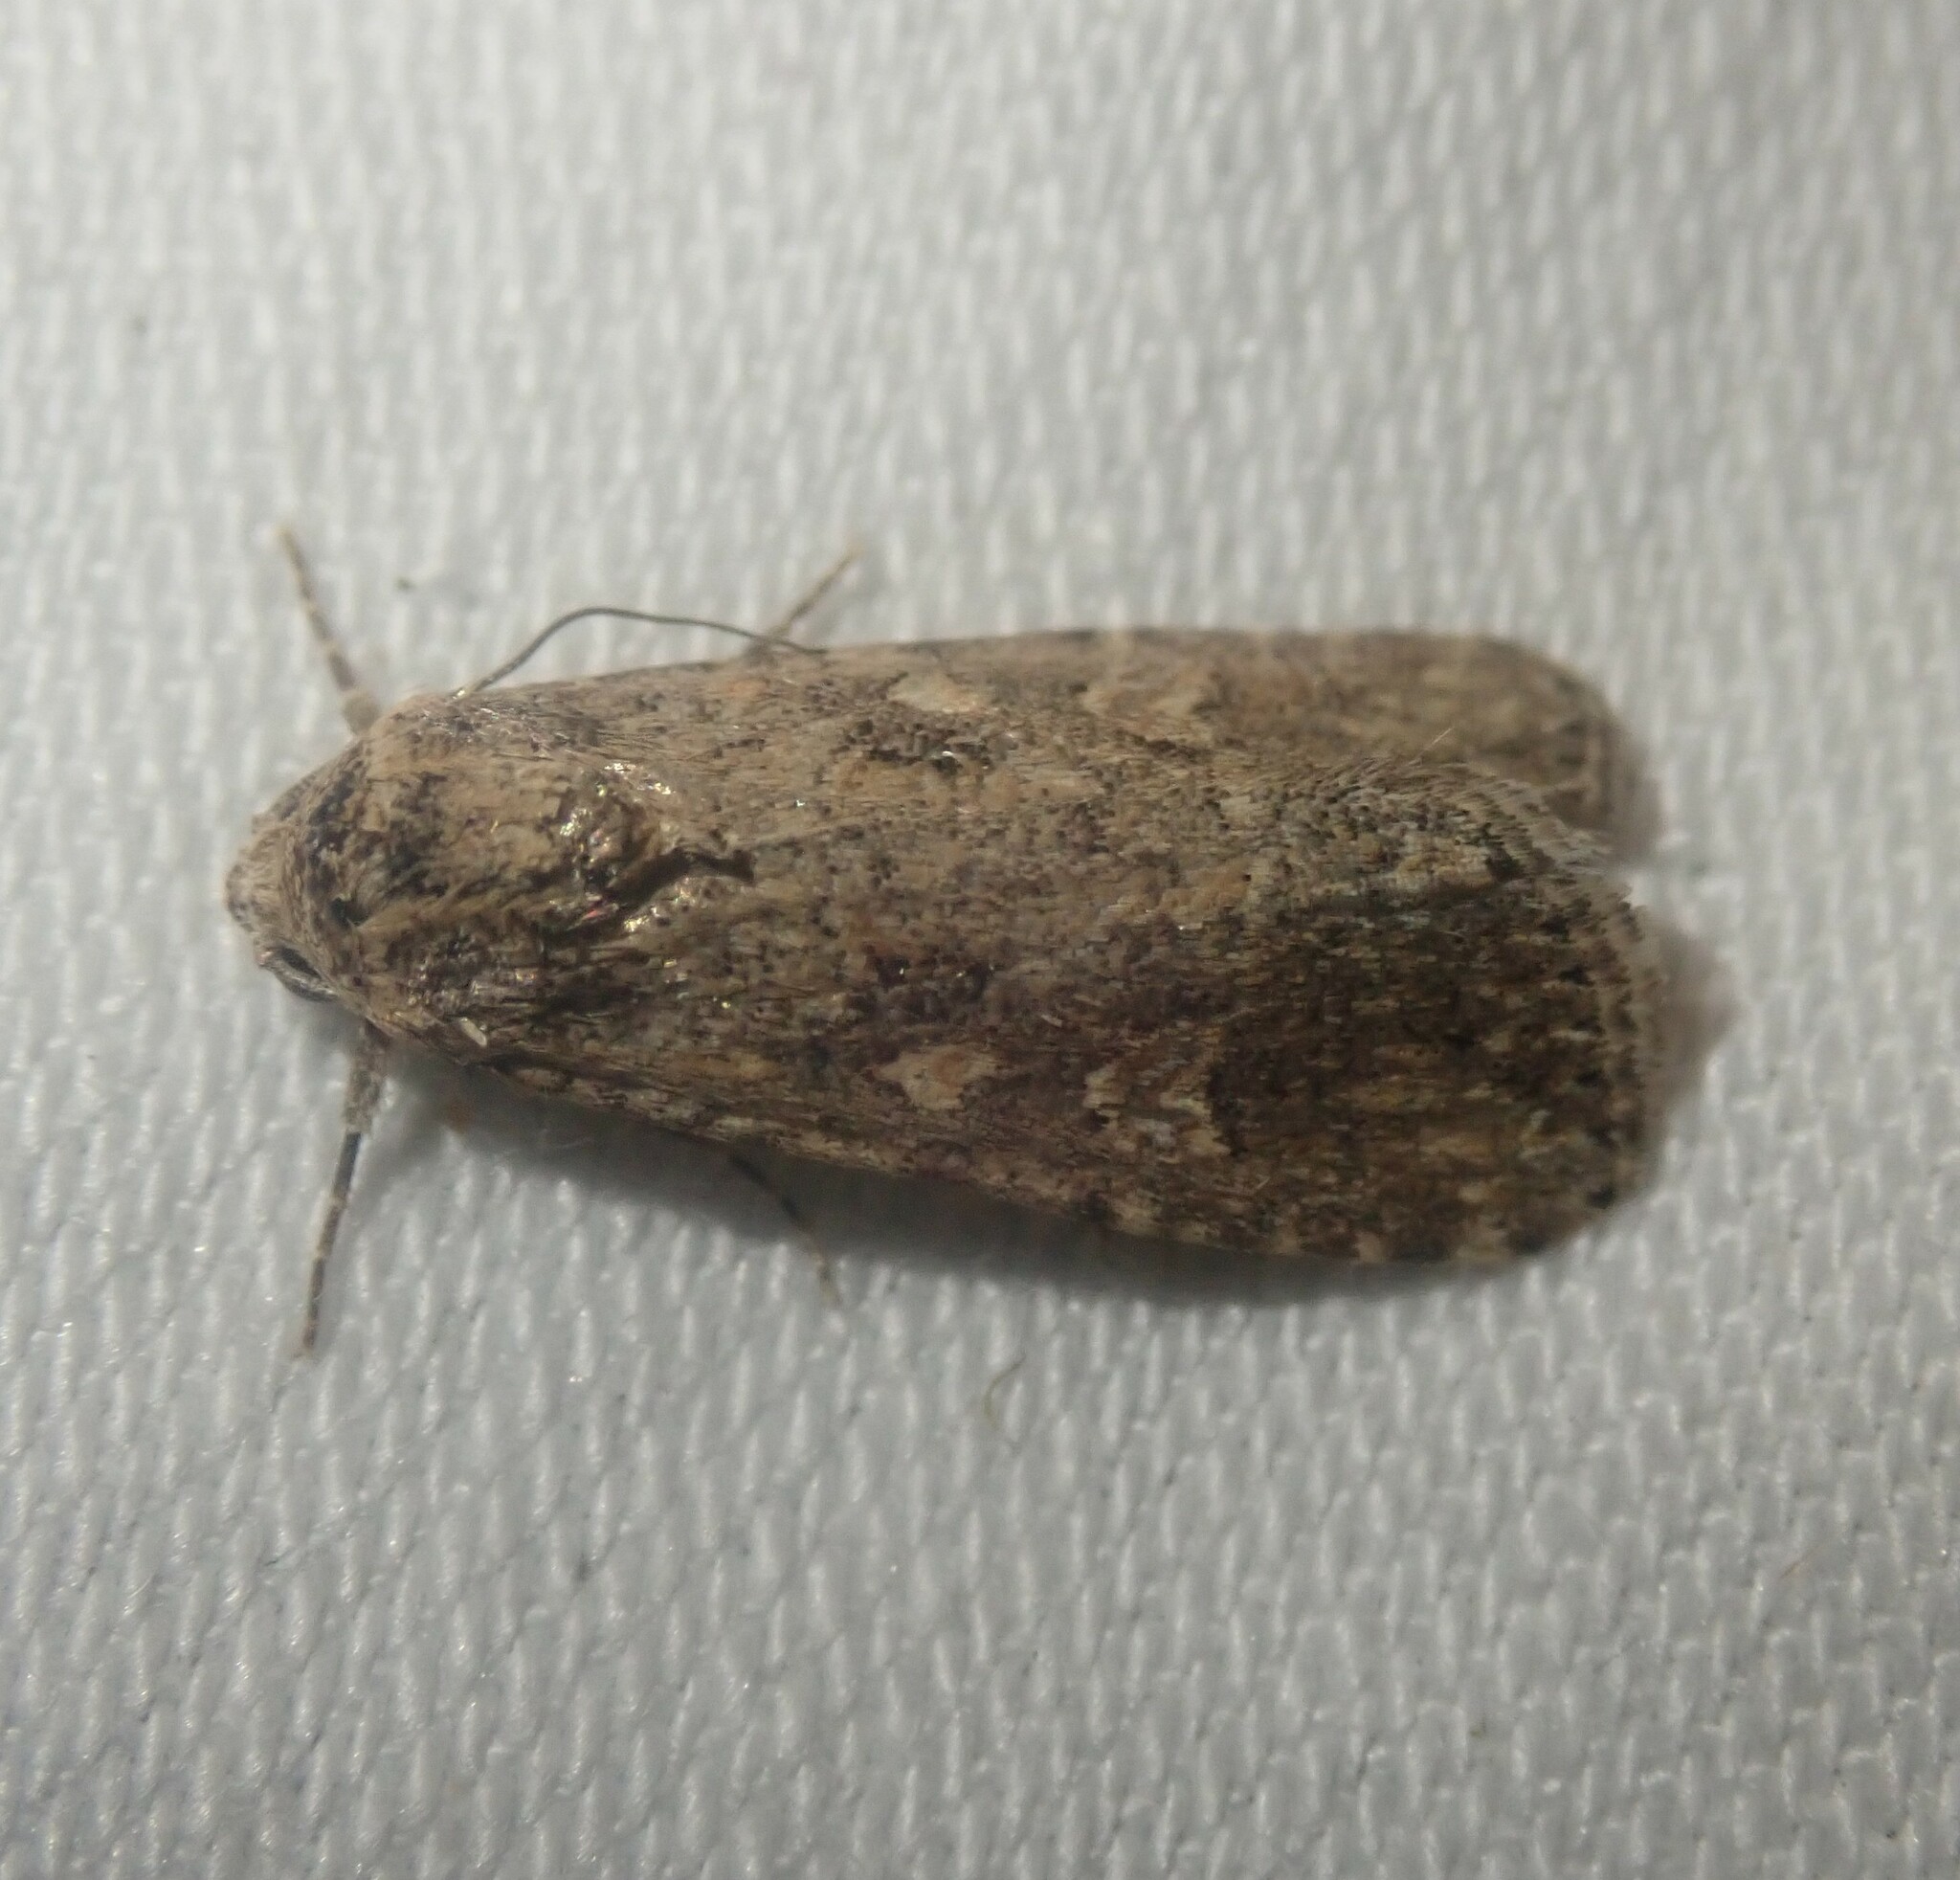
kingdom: Animalia
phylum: Arthropoda
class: Insecta
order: Lepidoptera
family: Noctuidae
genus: Spodoptera
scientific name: Spodoptera exigua
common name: Beet armyworm
